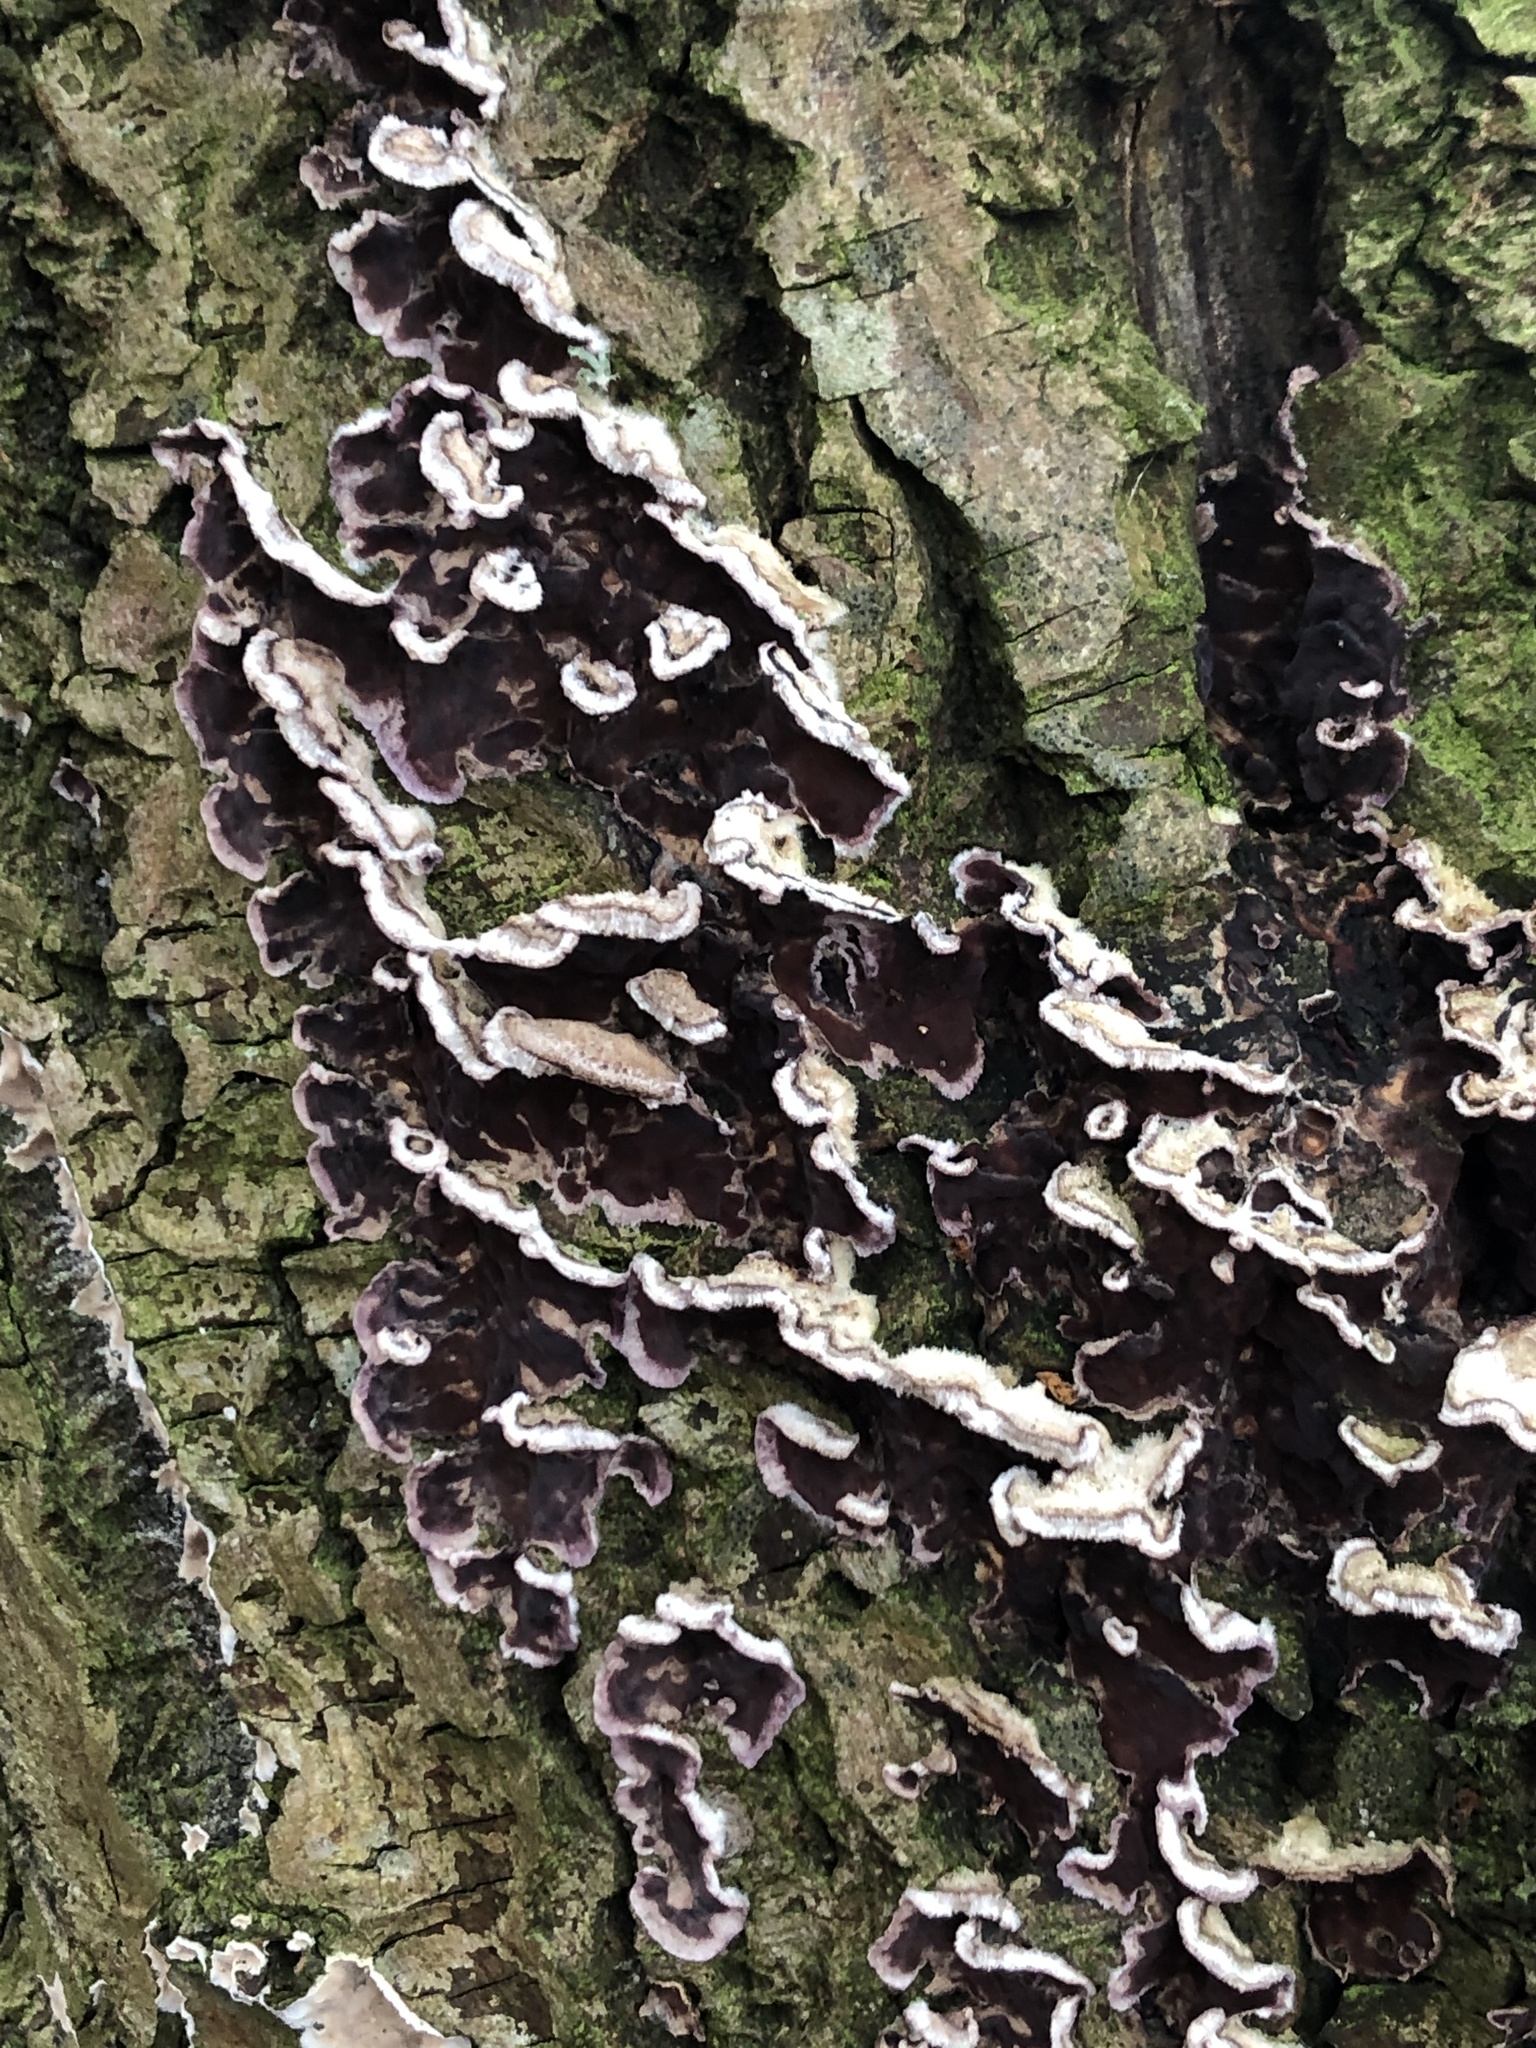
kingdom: Fungi
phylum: Basidiomycota
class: Agaricomycetes
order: Agaricales
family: Cyphellaceae
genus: Chondrostereum
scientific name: Chondrostereum purpureum
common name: Silver leaf disease
